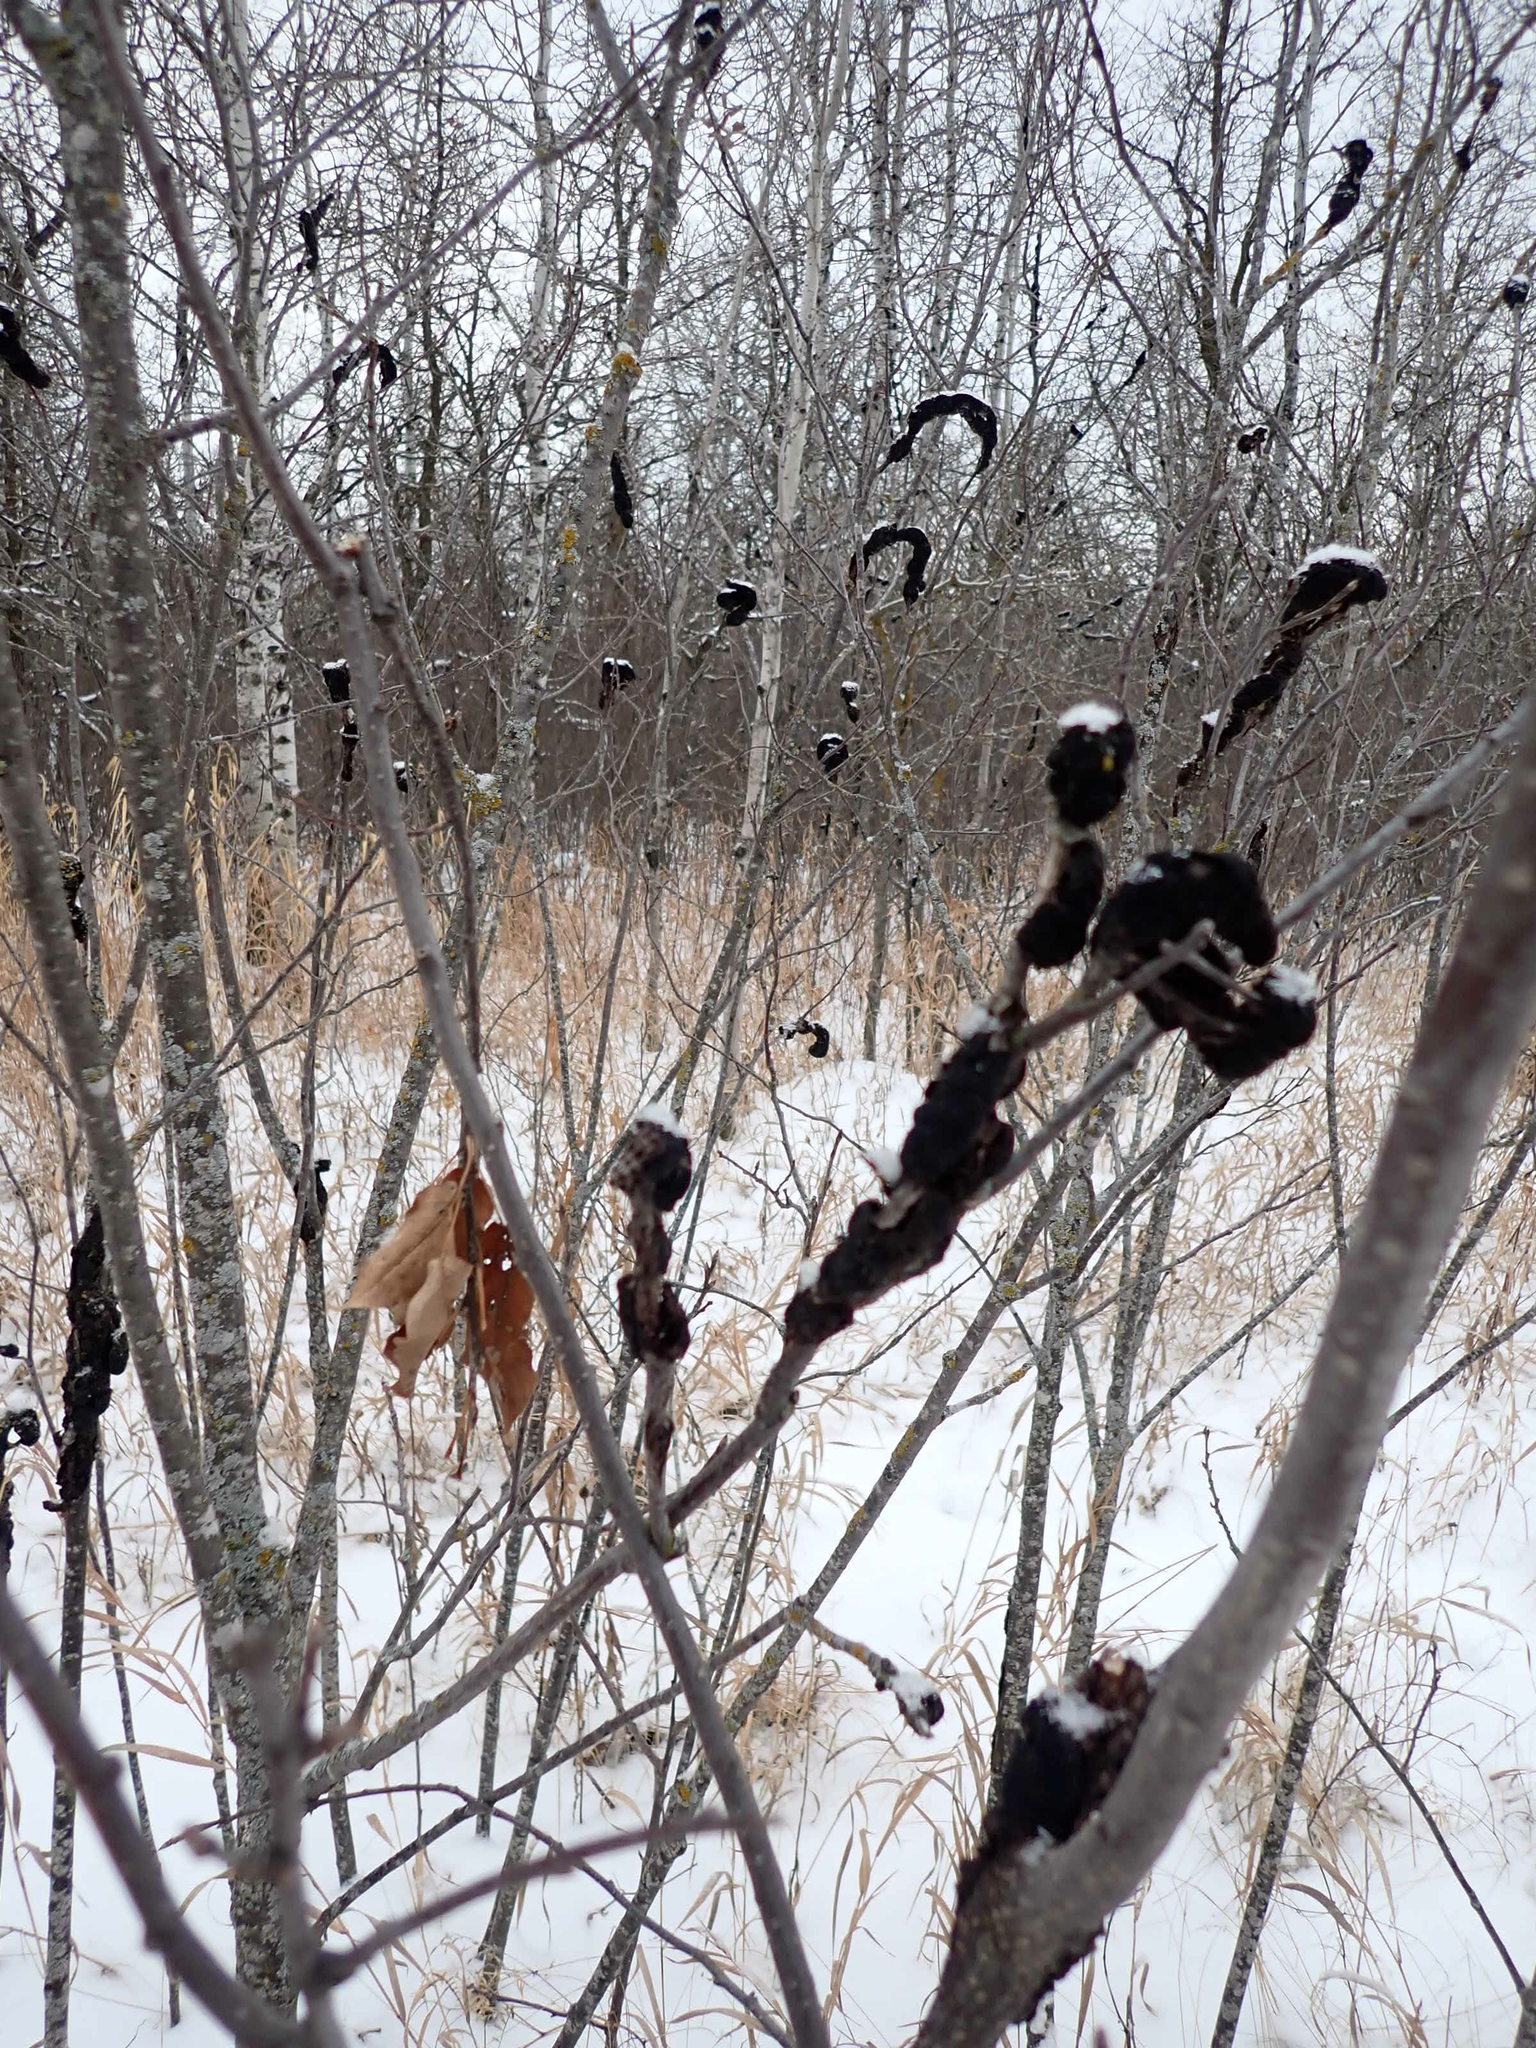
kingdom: Fungi
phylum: Ascomycota
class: Dothideomycetes
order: Venturiales
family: Venturiaceae
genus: Apiosporina
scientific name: Apiosporina morbosa
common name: Black knot
